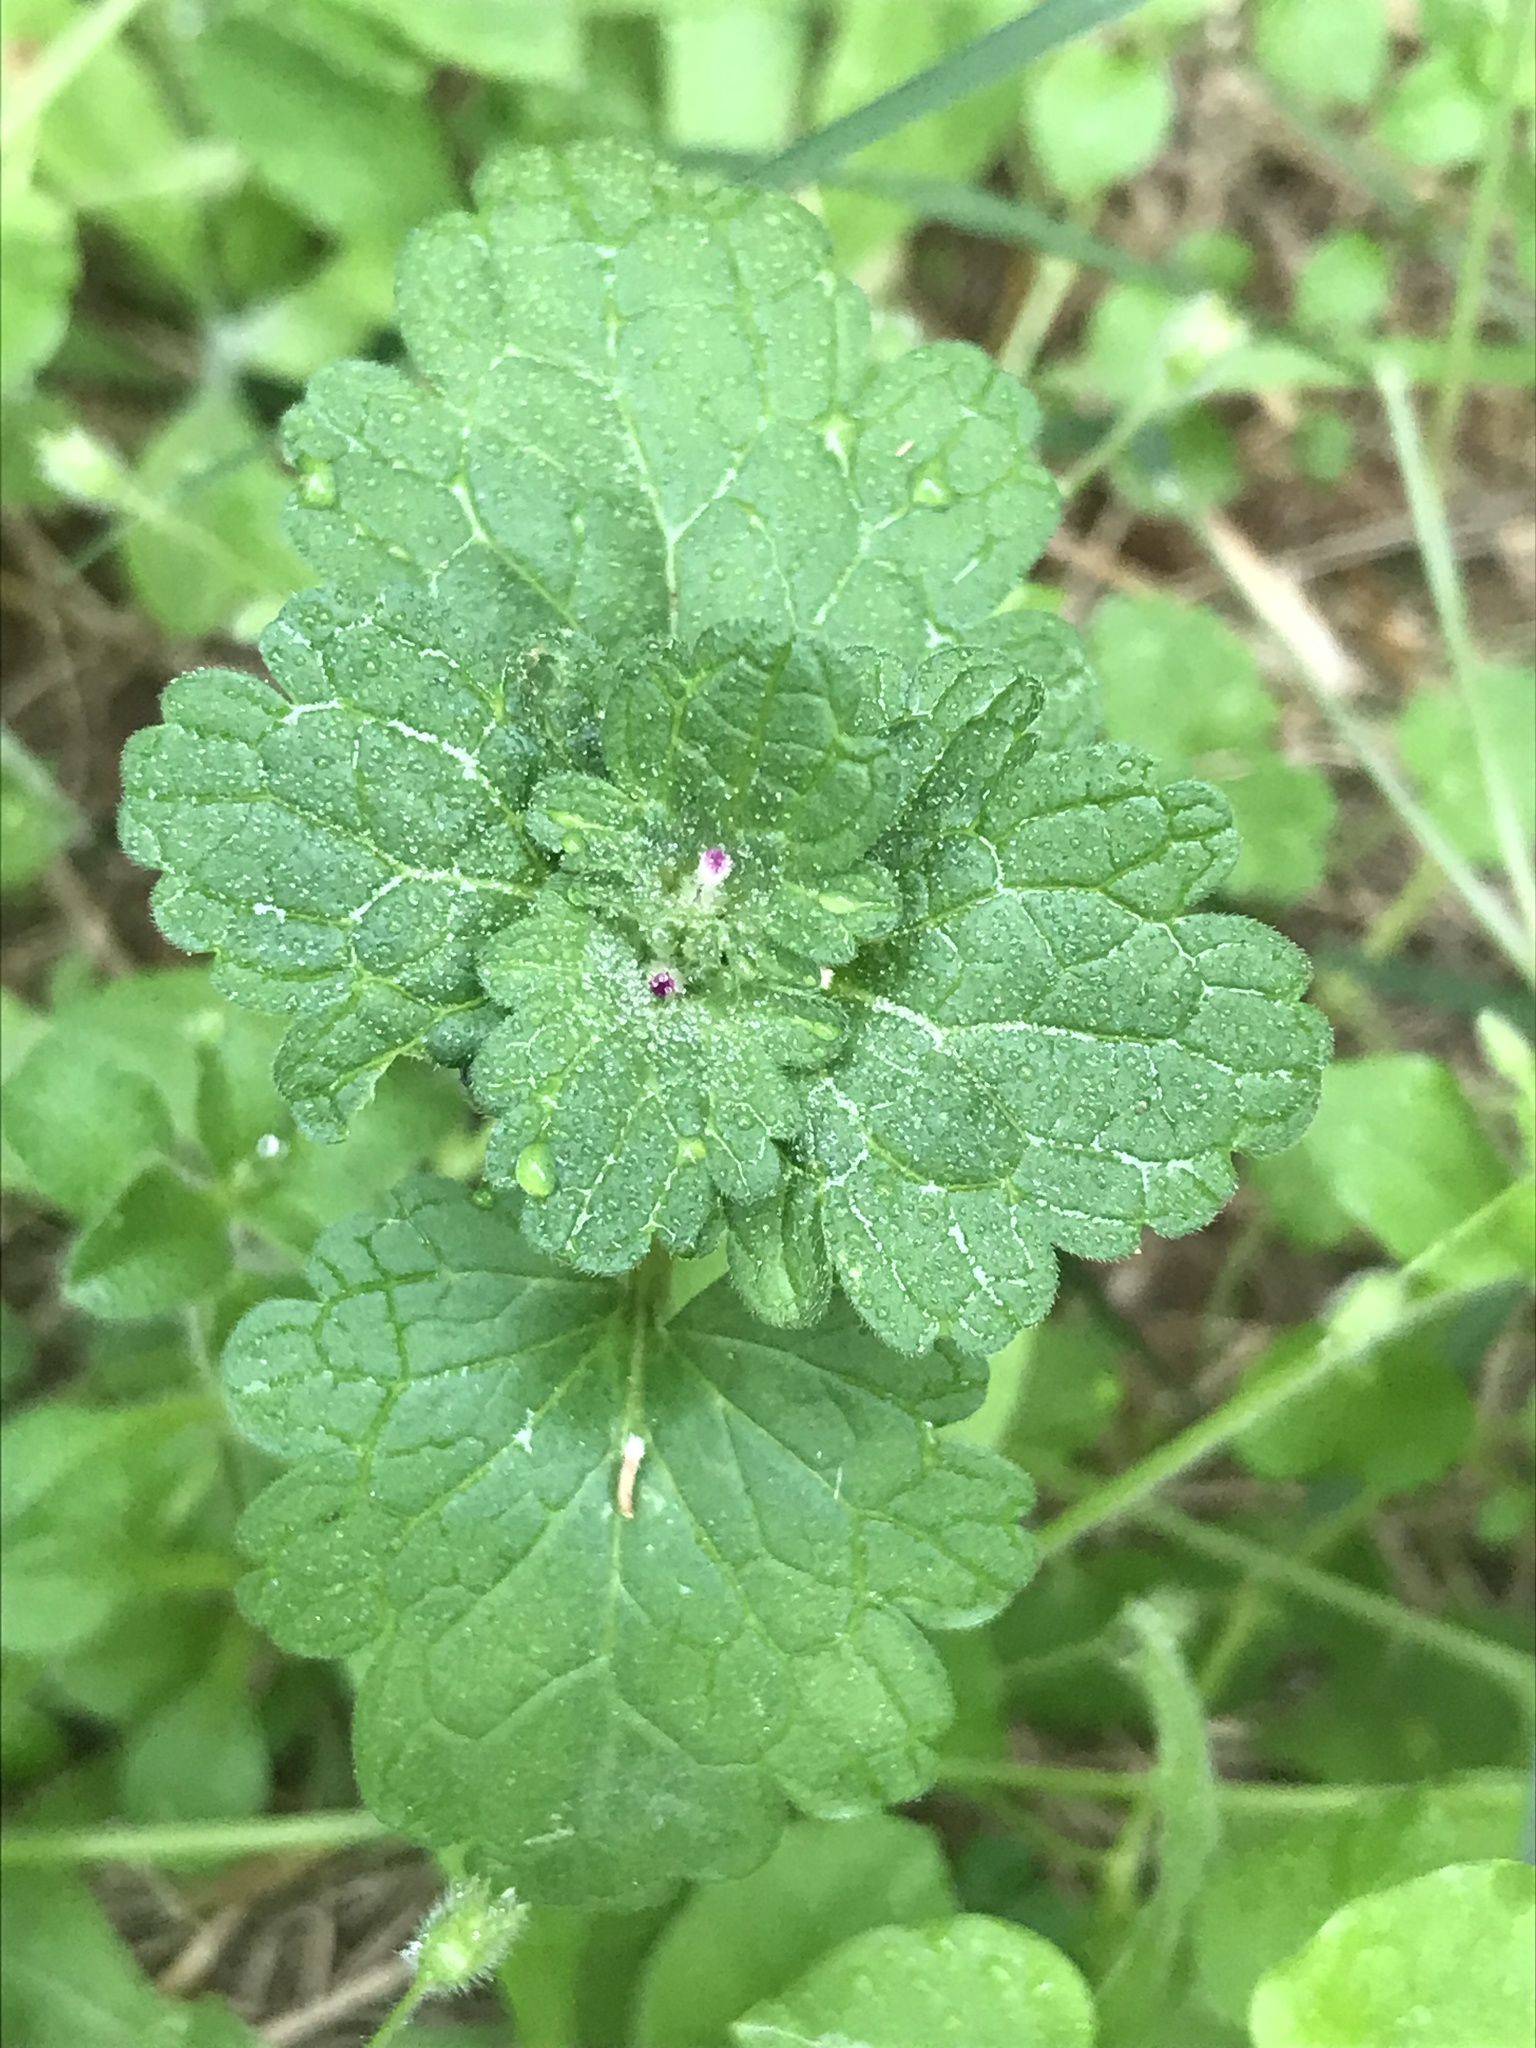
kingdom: Plantae
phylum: Tracheophyta
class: Magnoliopsida
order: Lamiales
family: Lamiaceae
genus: Lamium
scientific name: Lamium amplexicaule
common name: Henbit dead-nettle
